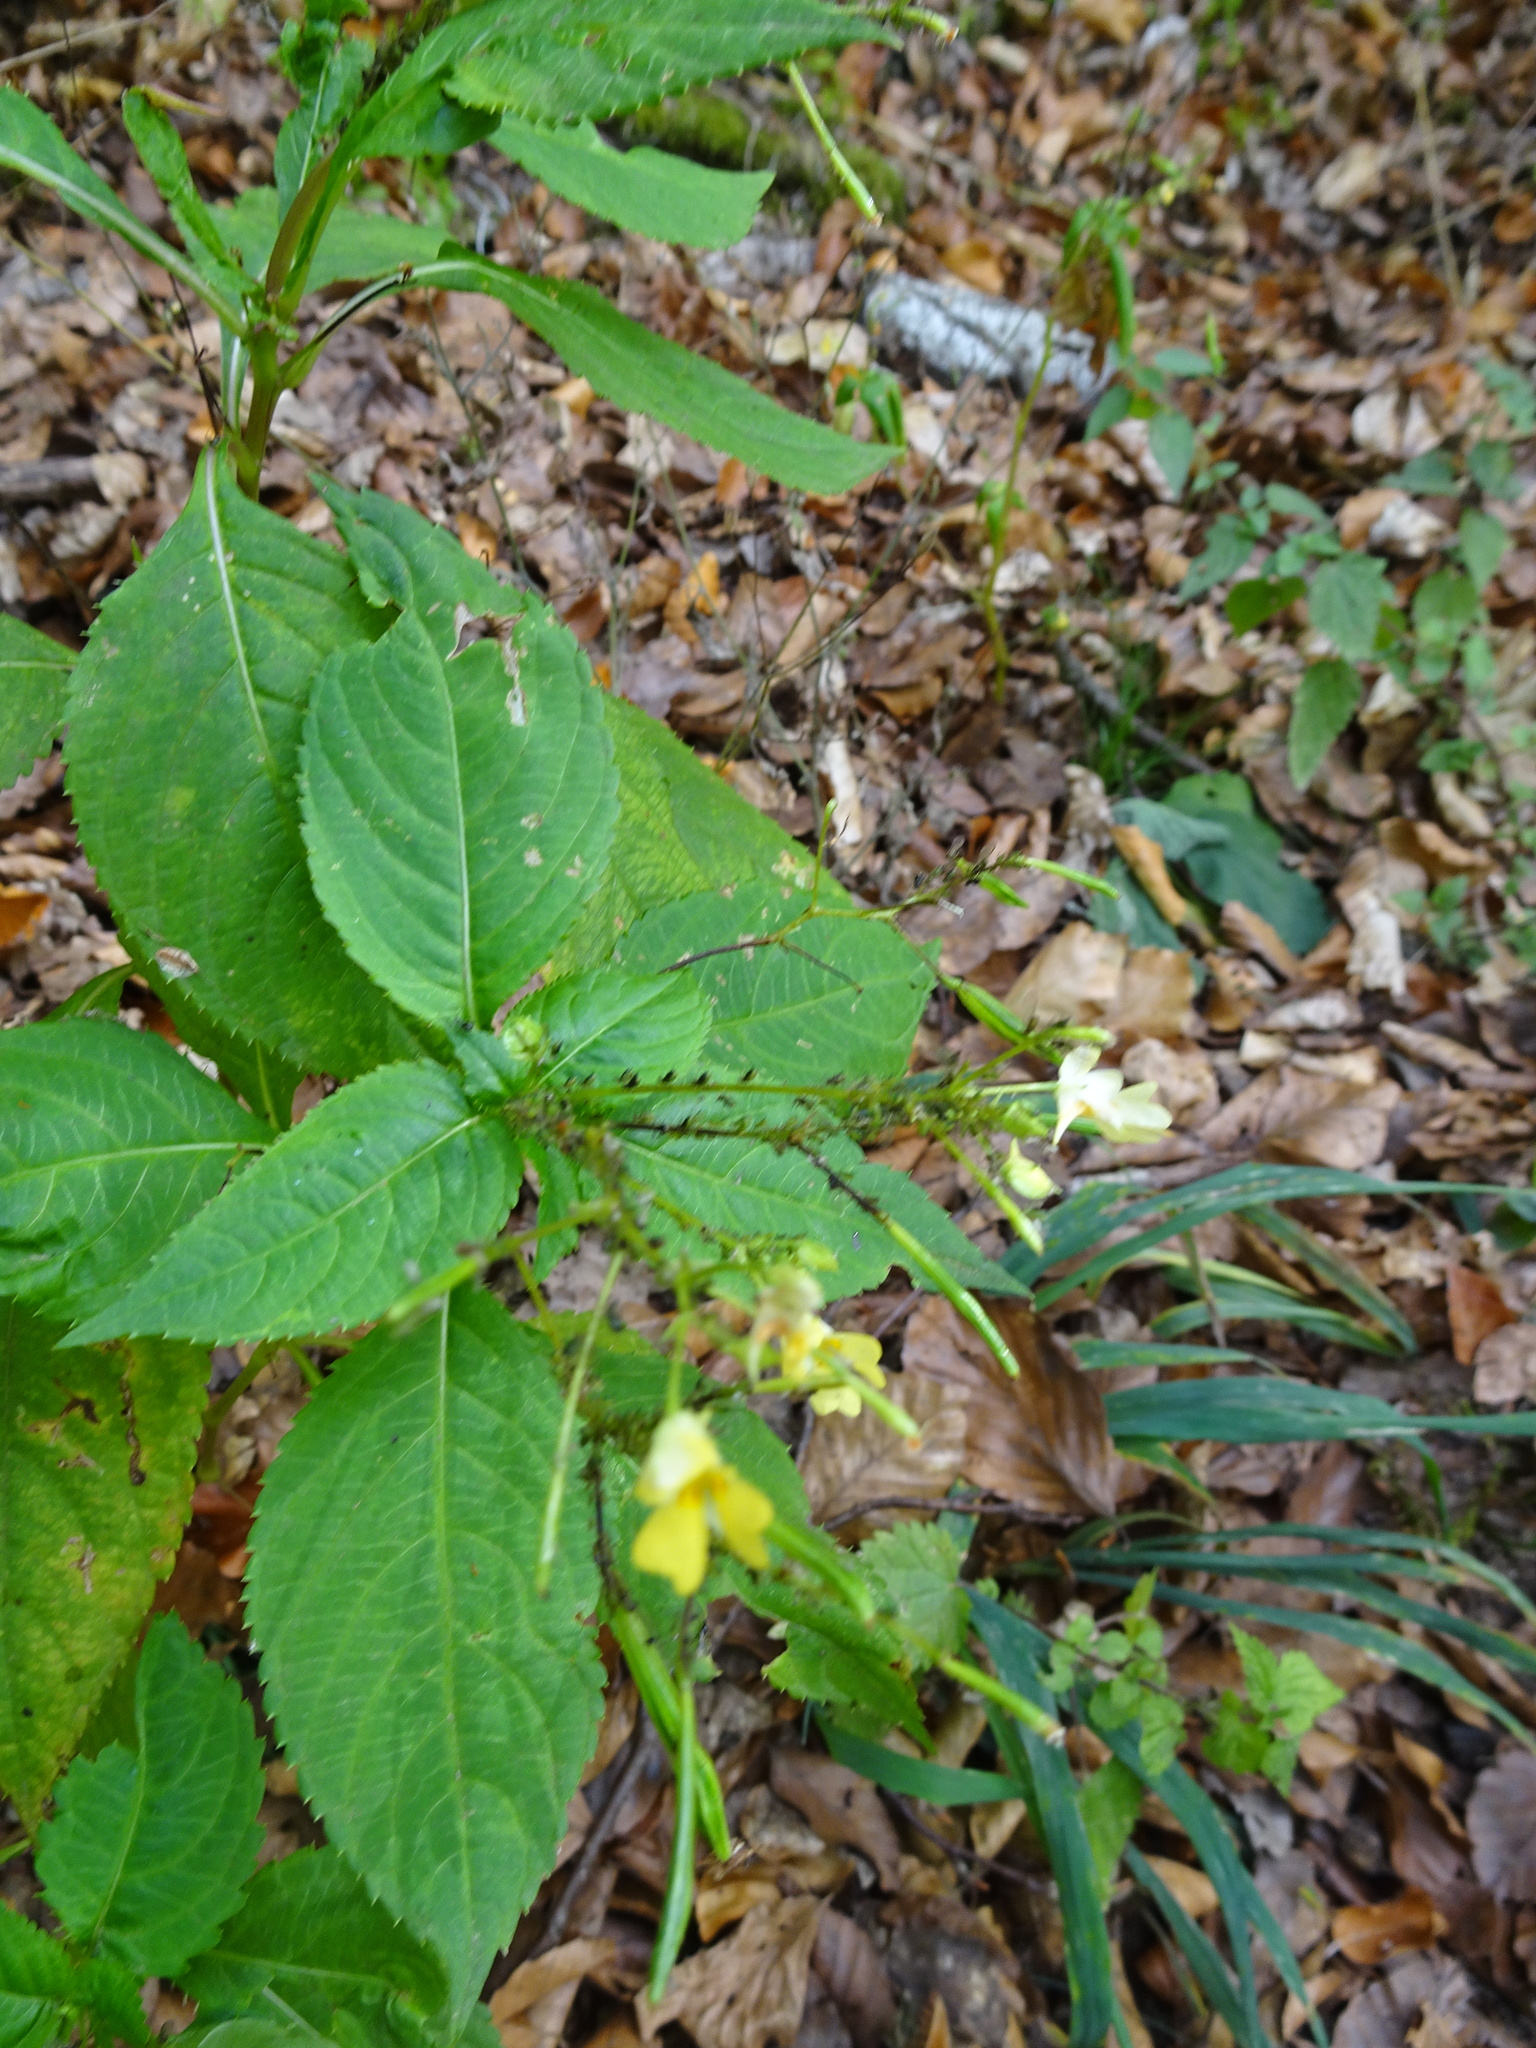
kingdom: Plantae
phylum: Tracheophyta
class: Magnoliopsida
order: Ericales
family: Balsaminaceae
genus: Impatiens
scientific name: Impatiens parviflora
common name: Small balsam
